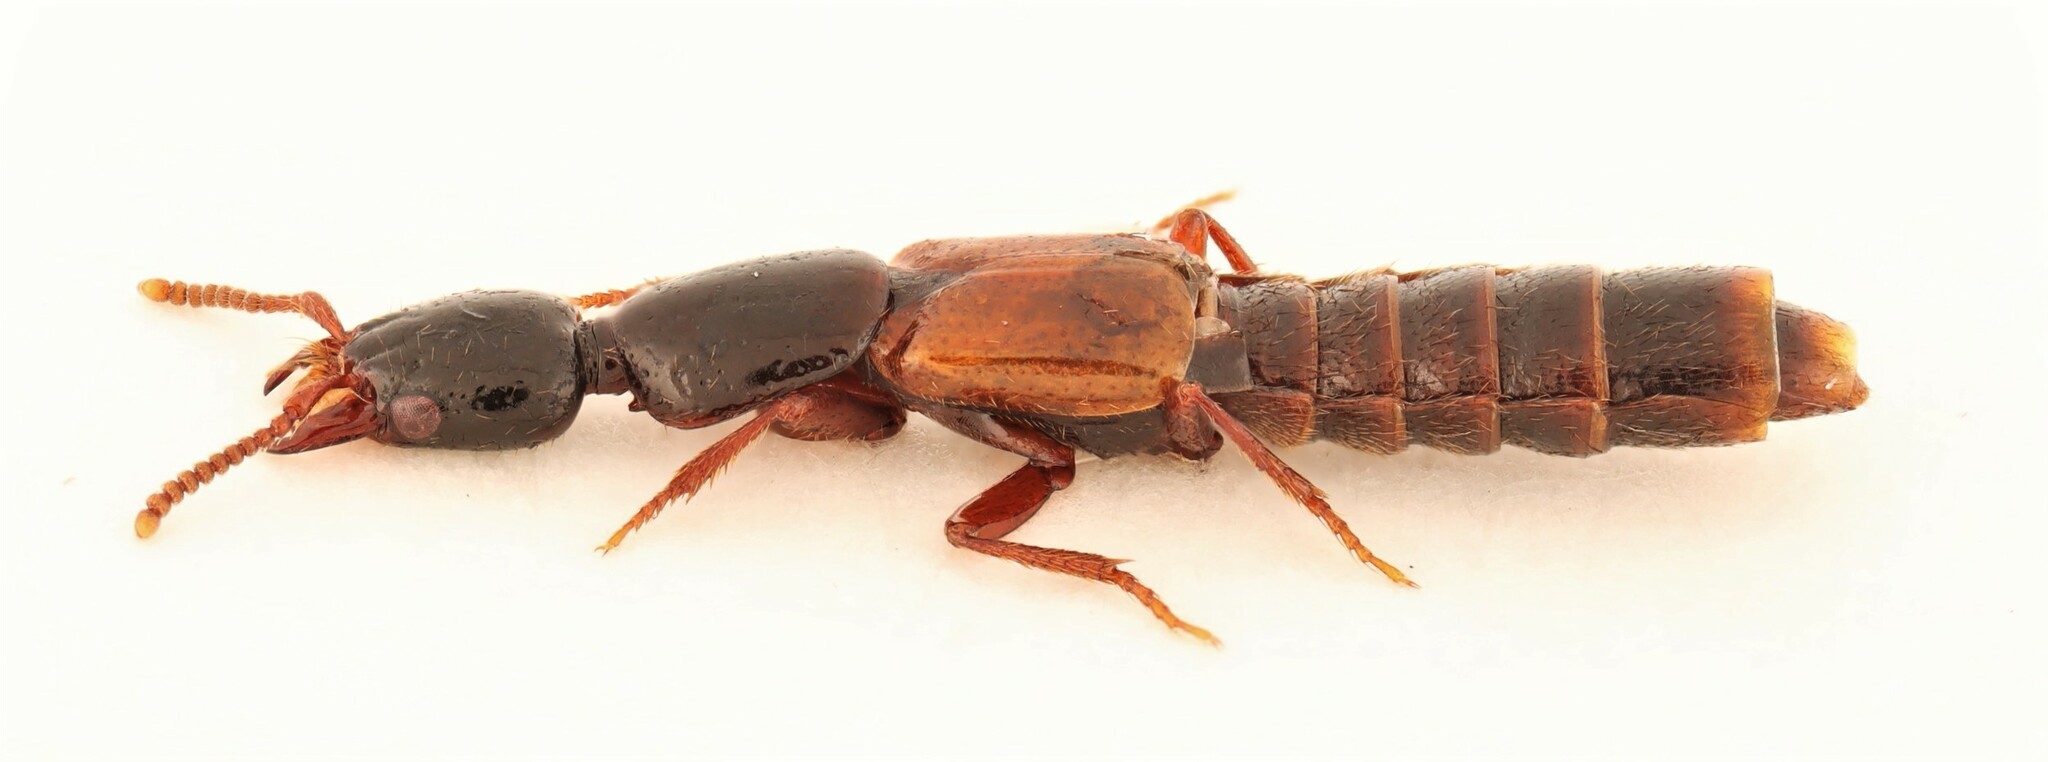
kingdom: Animalia
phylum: Arthropoda
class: Insecta
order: Coleoptera
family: Staphylinidae
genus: Hypnogyra
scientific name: Hypnogyra gularis
